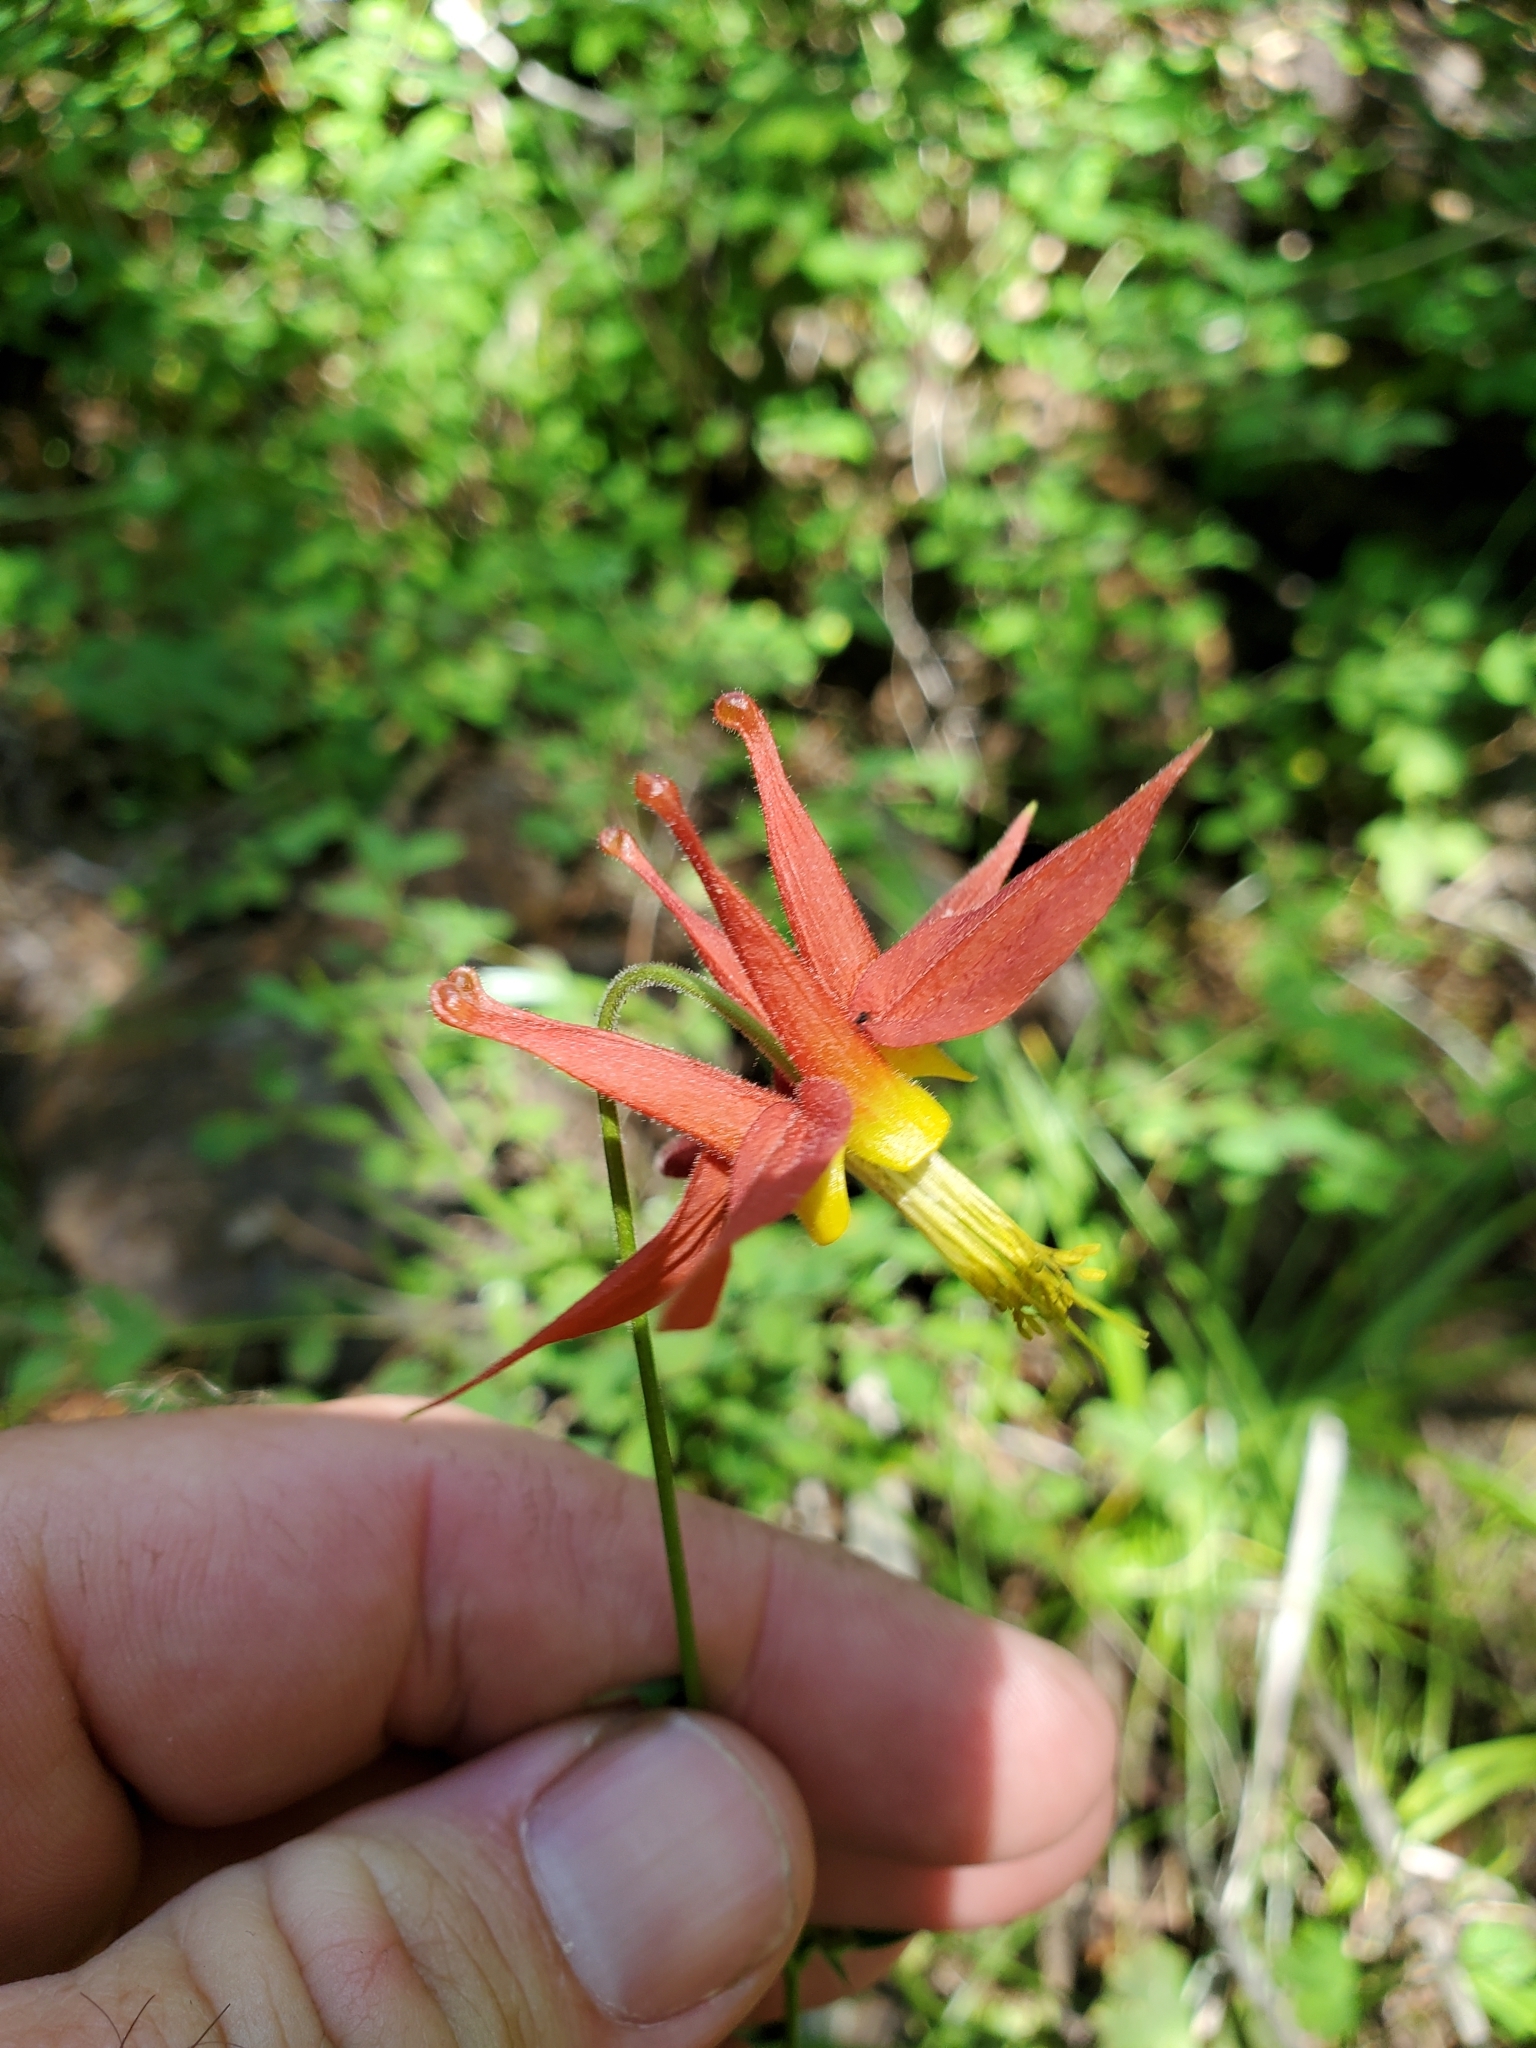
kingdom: Plantae
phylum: Tracheophyta
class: Magnoliopsida
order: Ranunculales
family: Ranunculaceae
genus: Aquilegia
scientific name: Aquilegia formosa
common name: Sitka columbine
